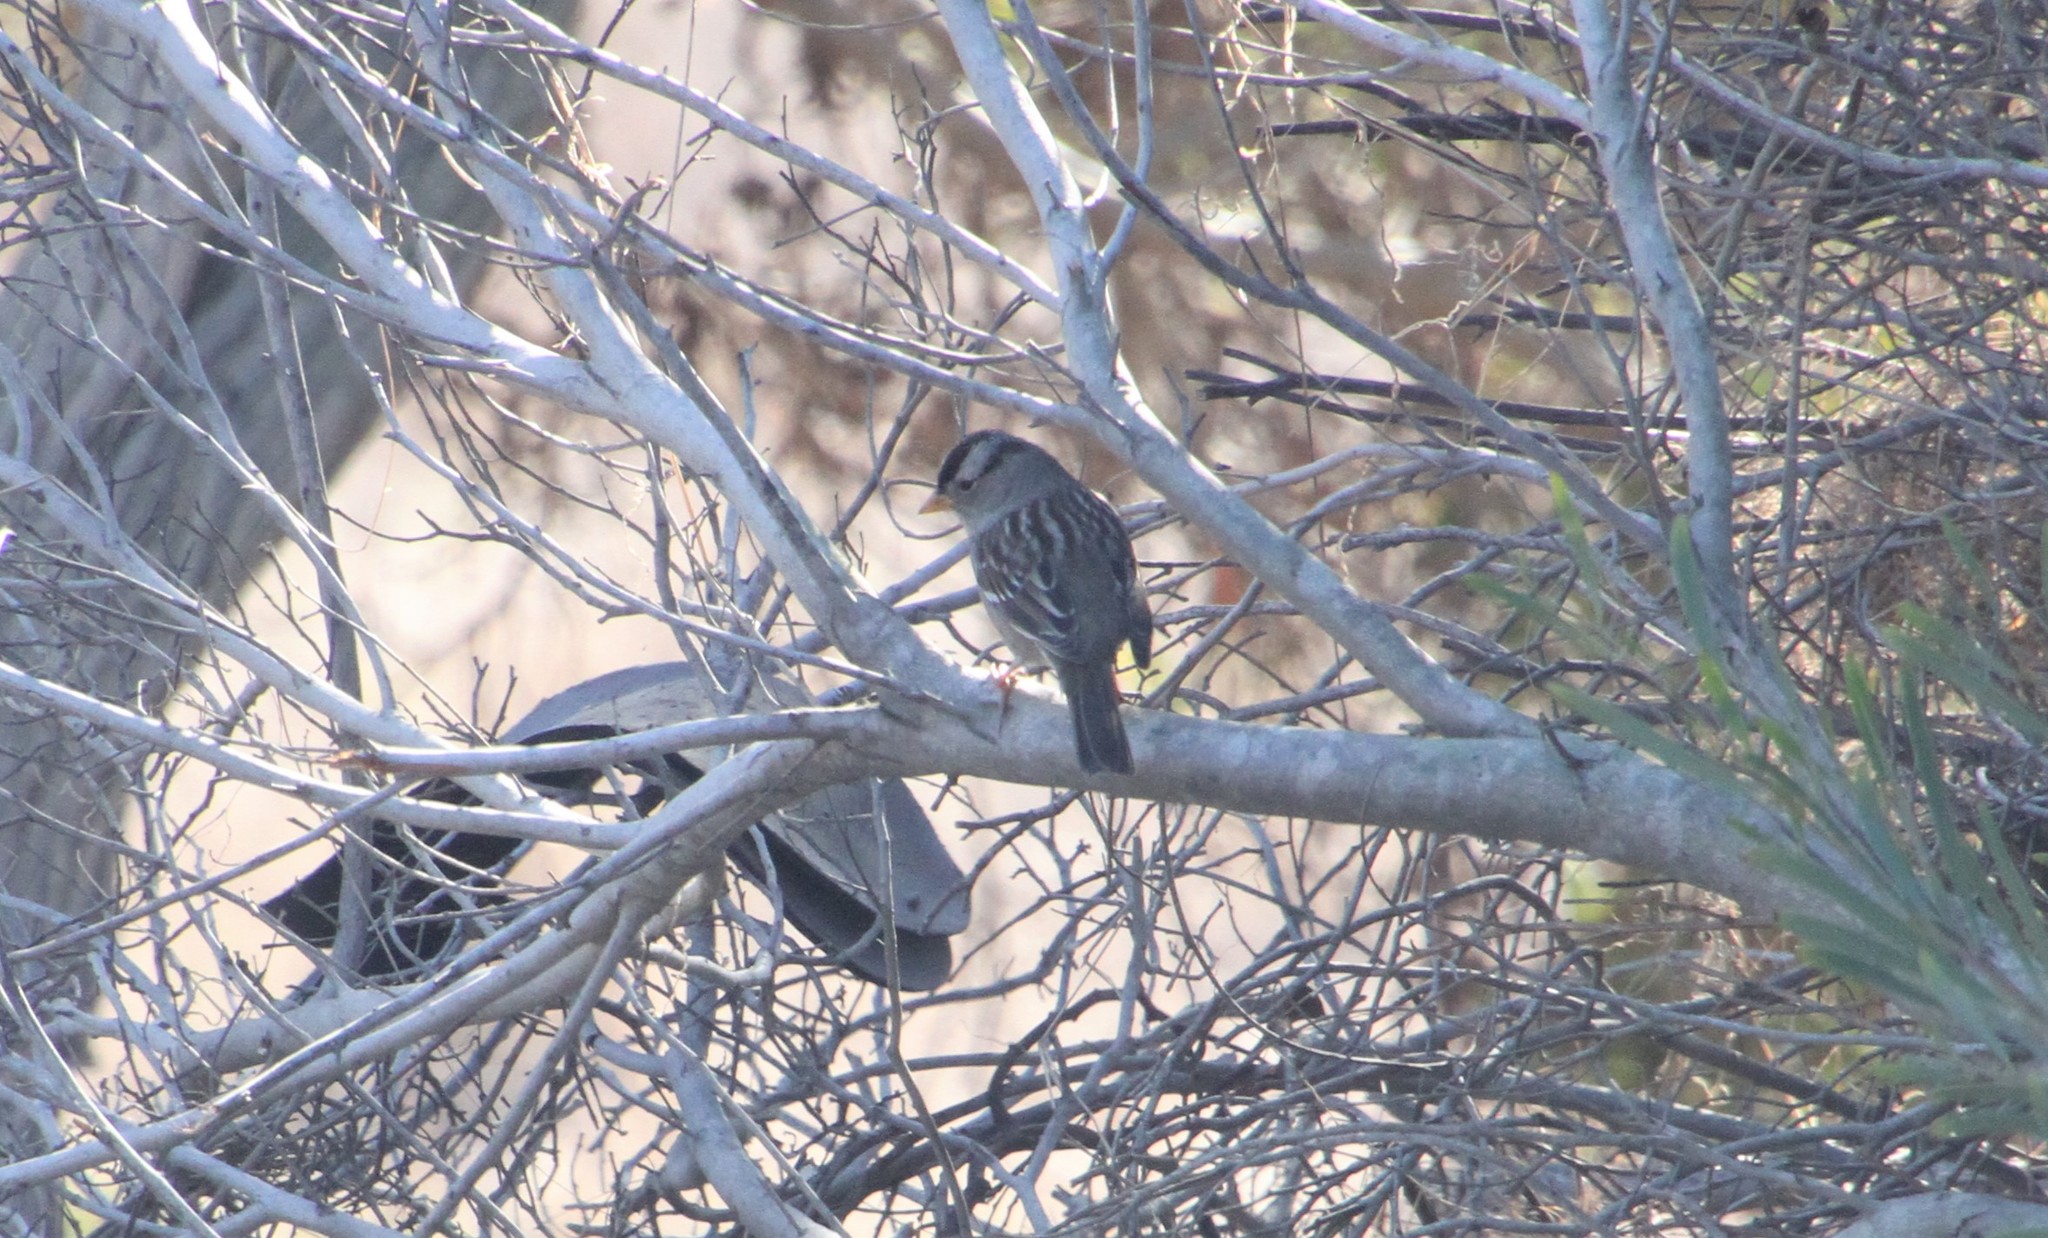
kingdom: Animalia
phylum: Chordata
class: Aves
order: Passeriformes
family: Passerellidae
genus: Zonotrichia
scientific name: Zonotrichia leucophrys
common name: White-crowned sparrow
